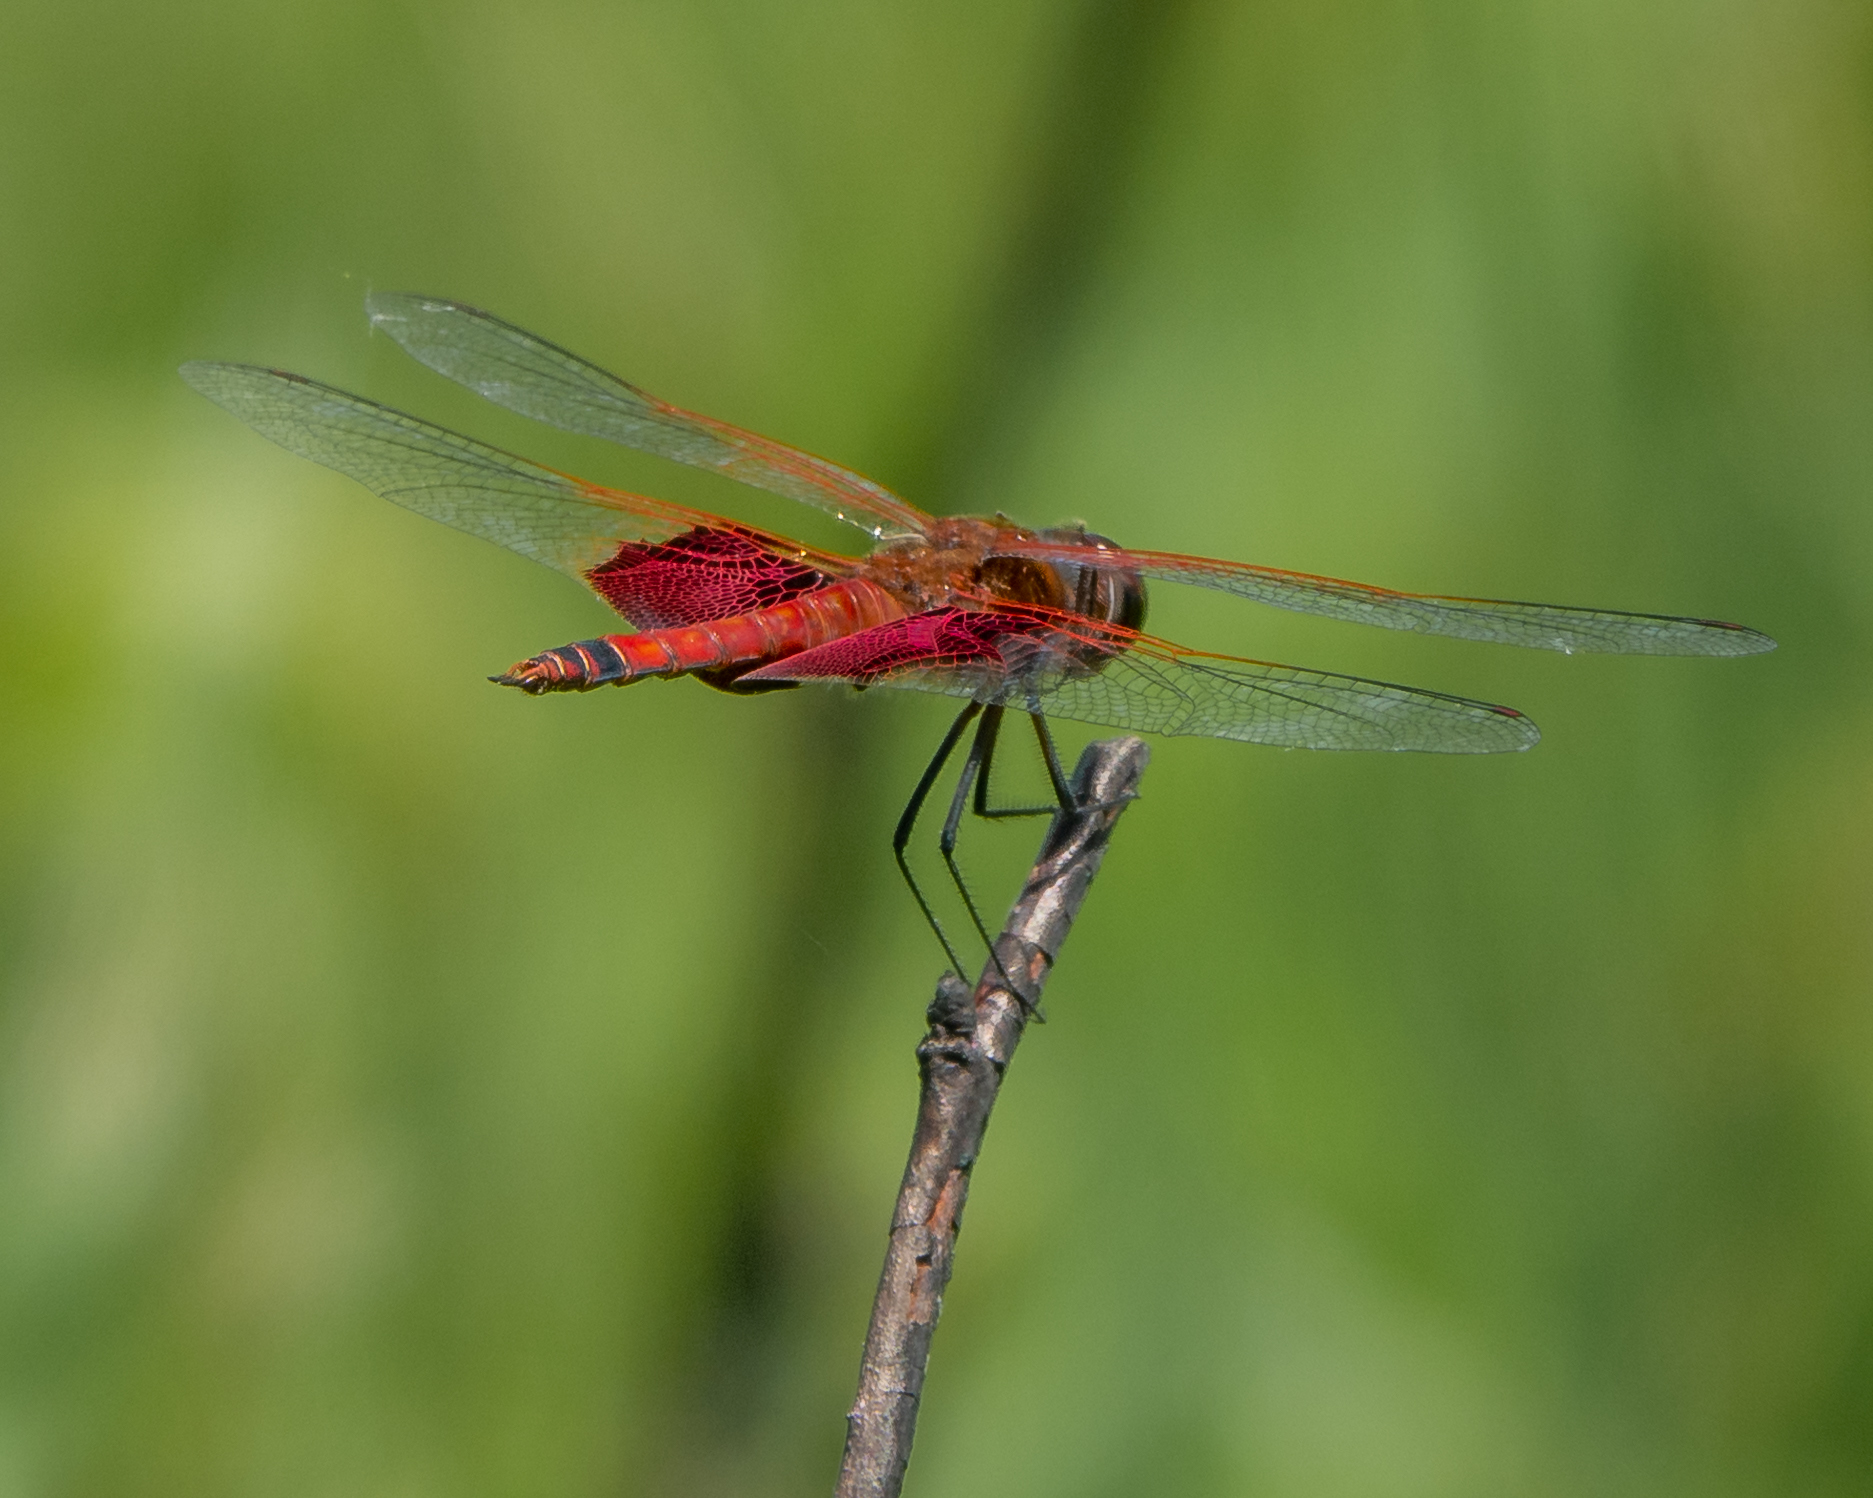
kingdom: Animalia
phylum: Arthropoda
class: Insecta
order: Odonata
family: Libellulidae
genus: Tramea
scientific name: Tramea carolina
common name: Carolina saddlebags
